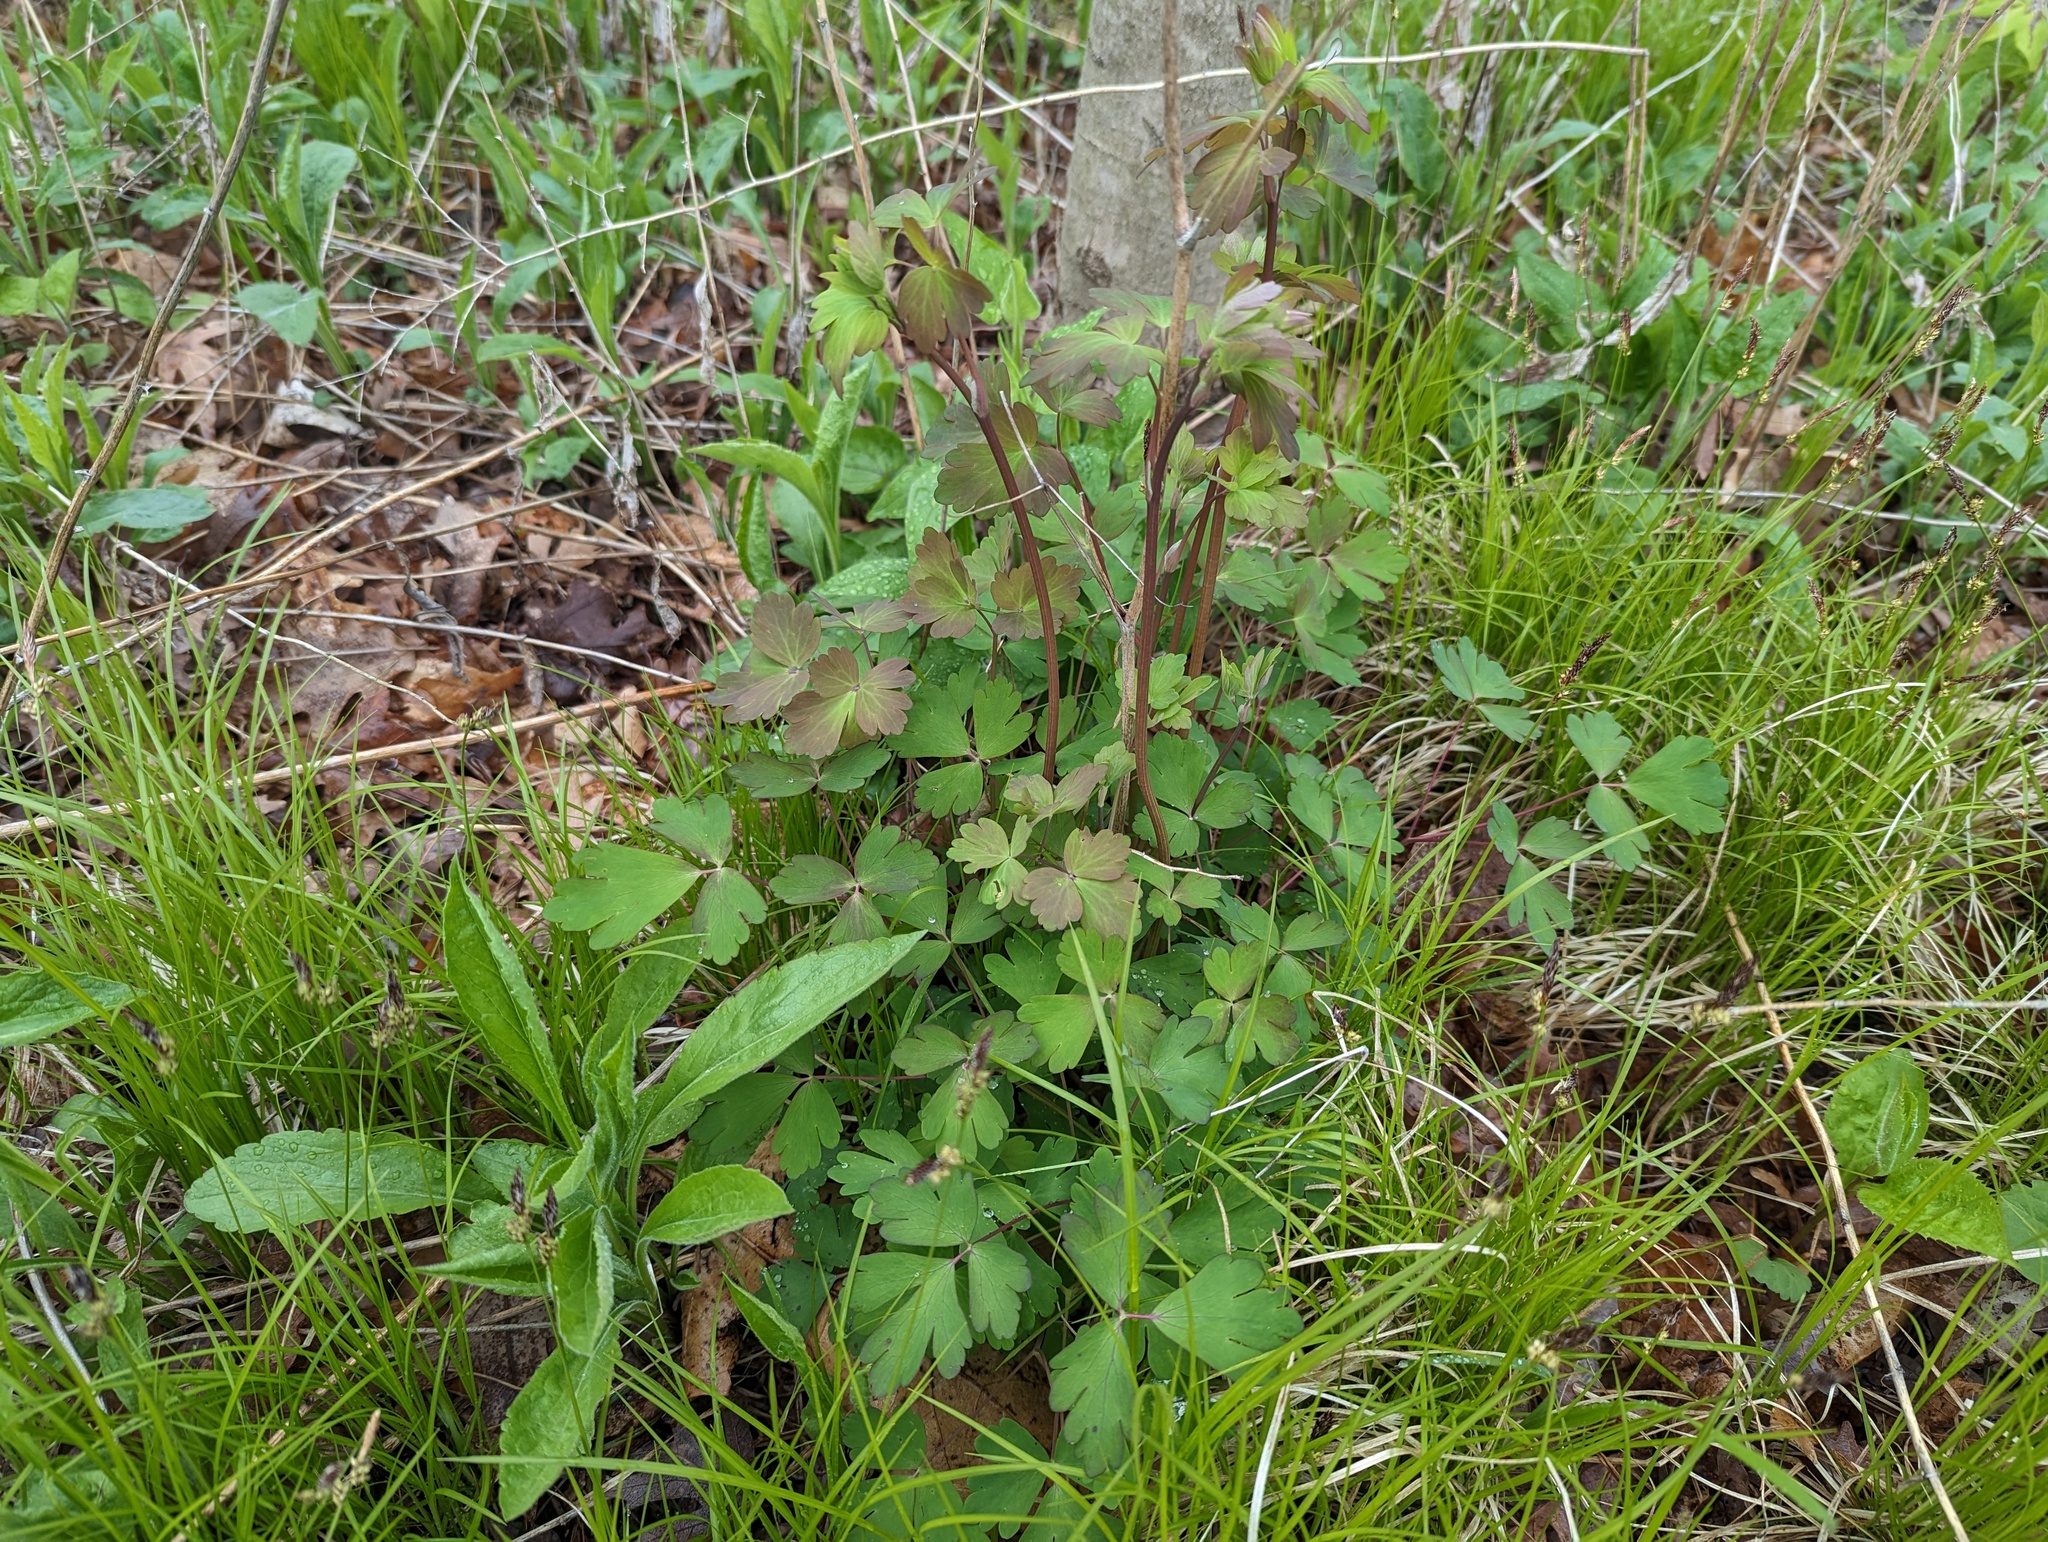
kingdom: Plantae
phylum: Tracheophyta
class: Magnoliopsida
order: Ranunculales
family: Ranunculaceae
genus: Aquilegia
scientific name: Aquilegia canadensis
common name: American columbine
